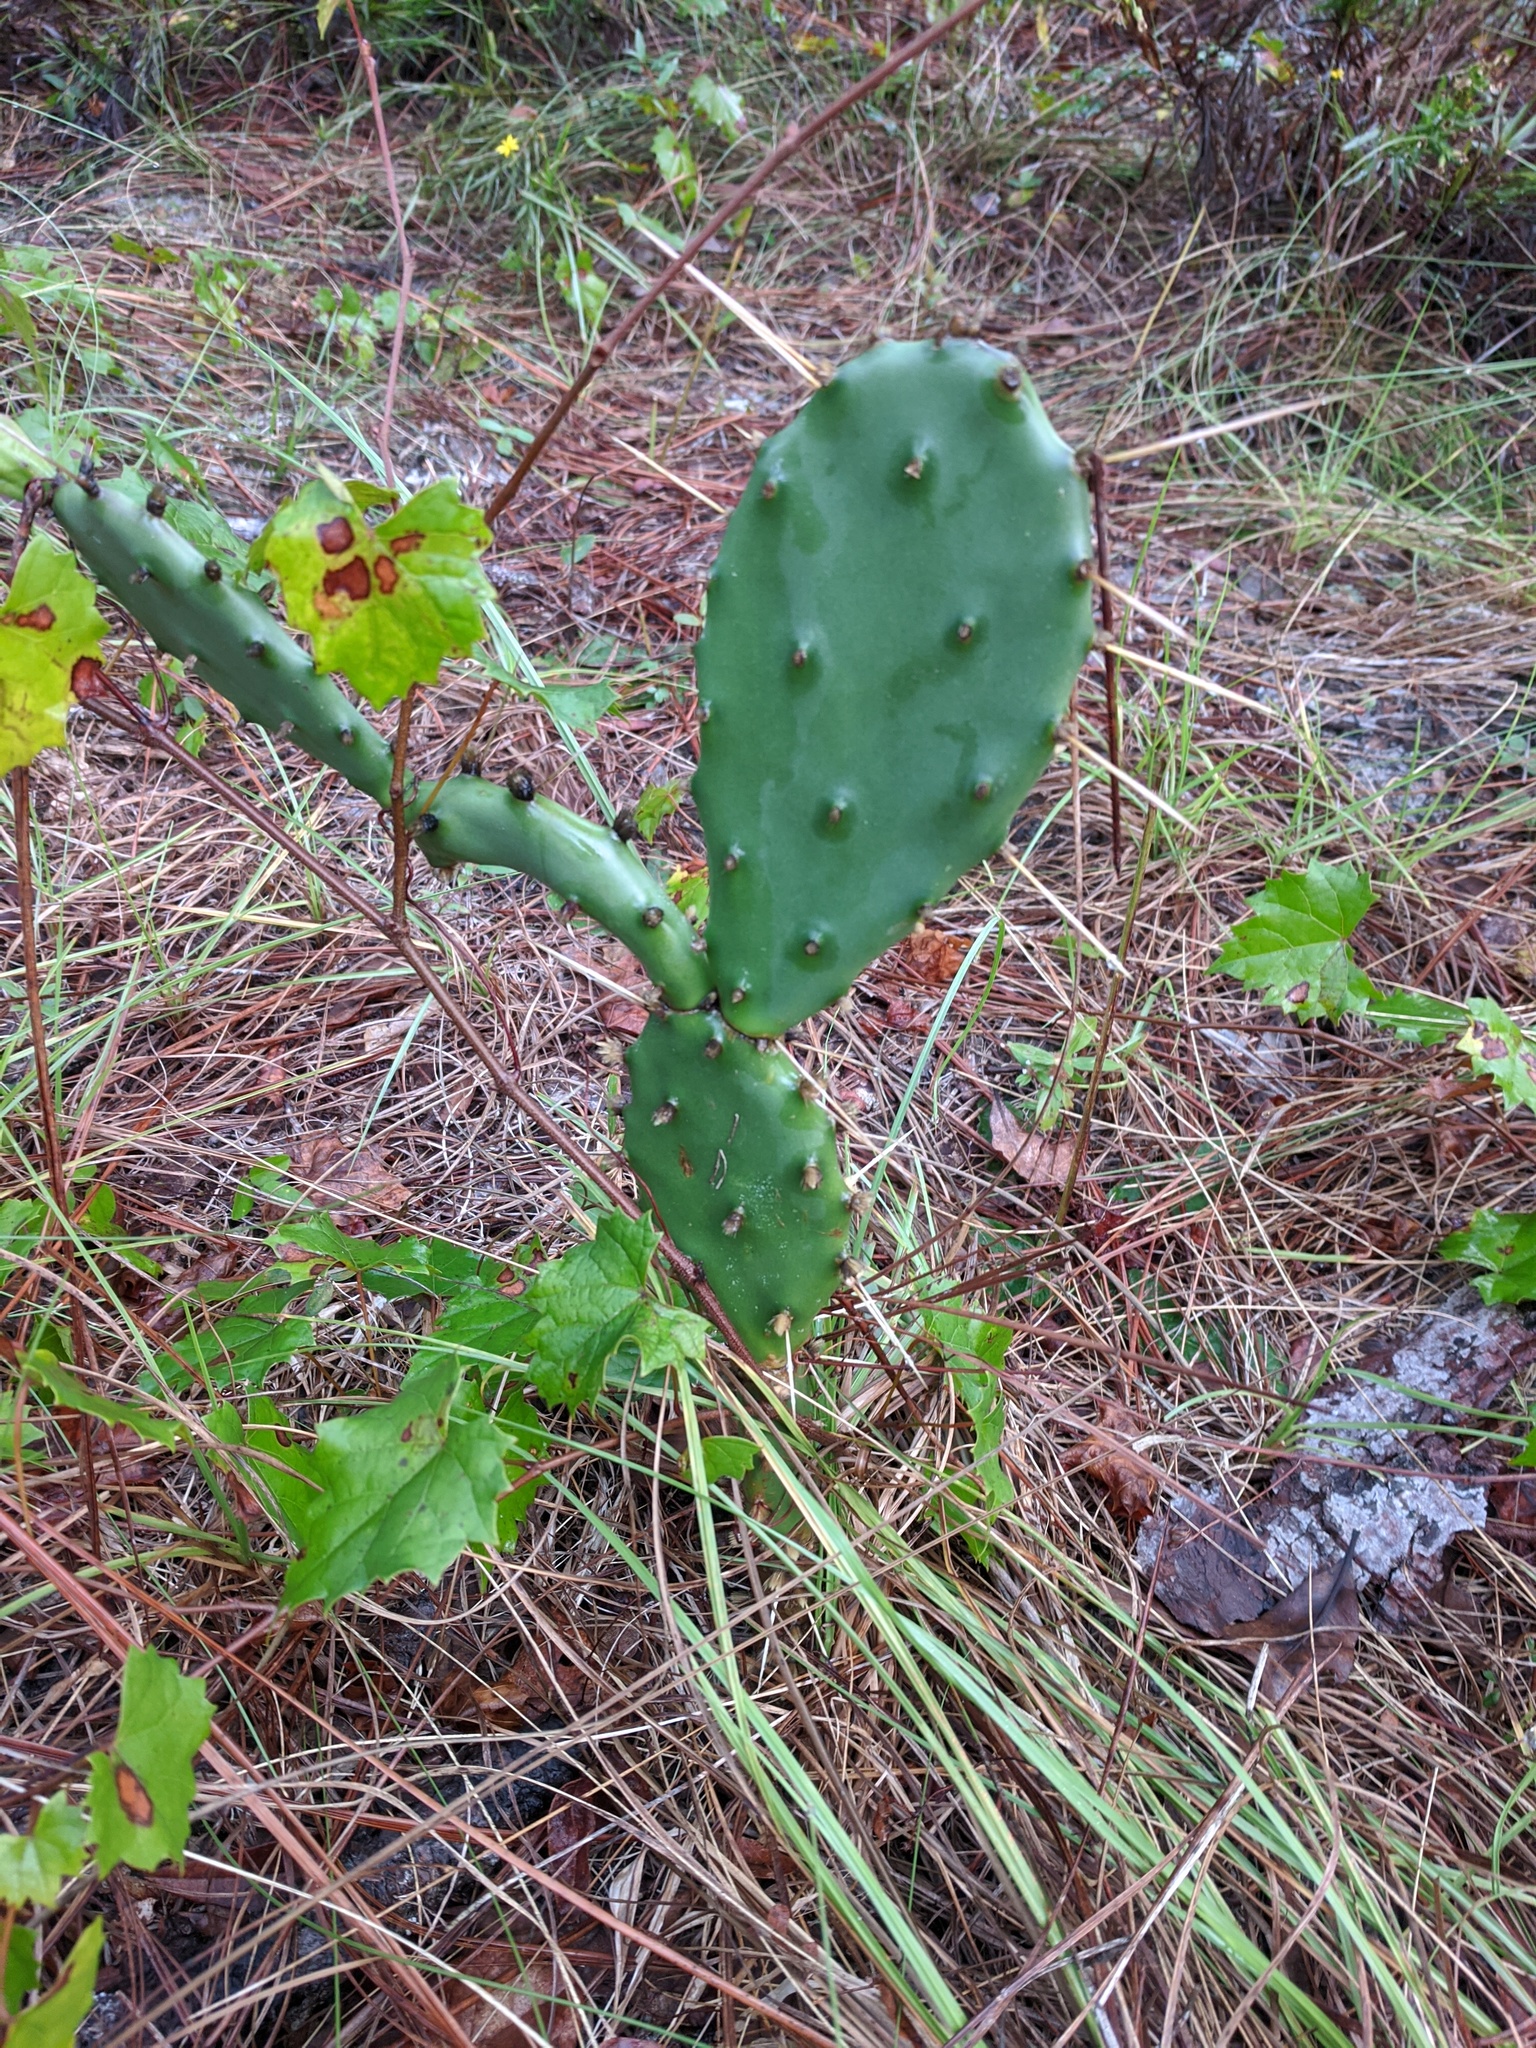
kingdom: Plantae
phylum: Tracheophyta
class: Magnoliopsida
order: Caryophyllales
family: Cactaceae
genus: Opuntia
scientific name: Opuntia austrina
